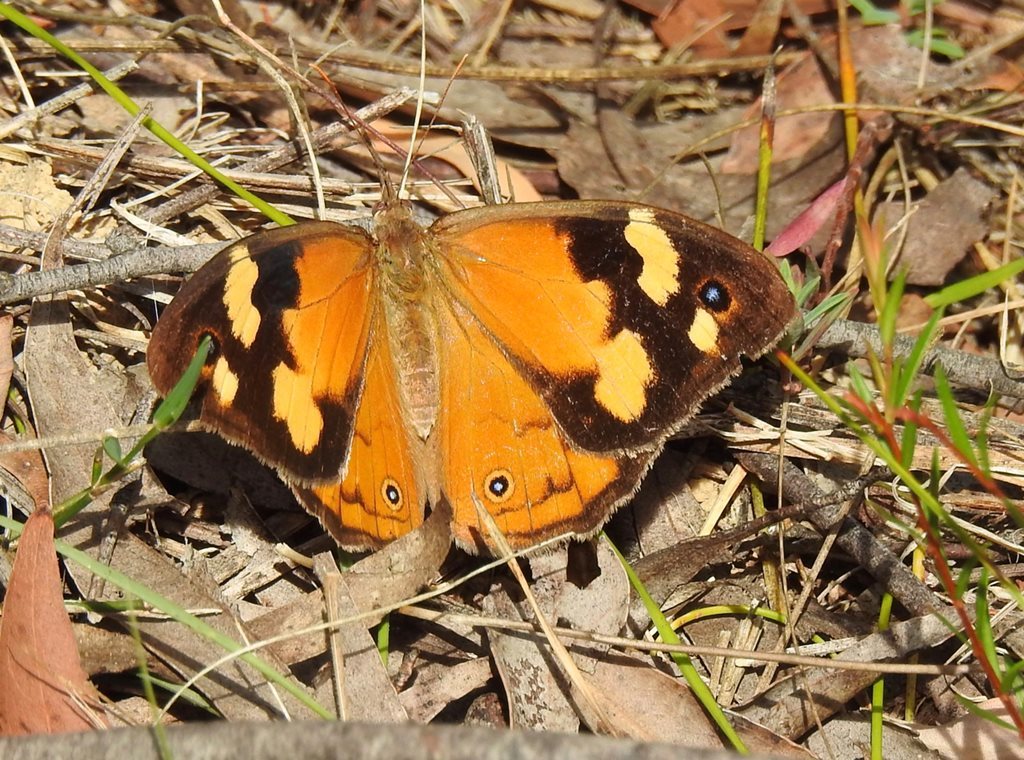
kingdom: Animalia
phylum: Arthropoda
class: Insecta
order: Lepidoptera
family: Nymphalidae
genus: Heteronympha
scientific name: Heteronympha merope
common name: Common brown
